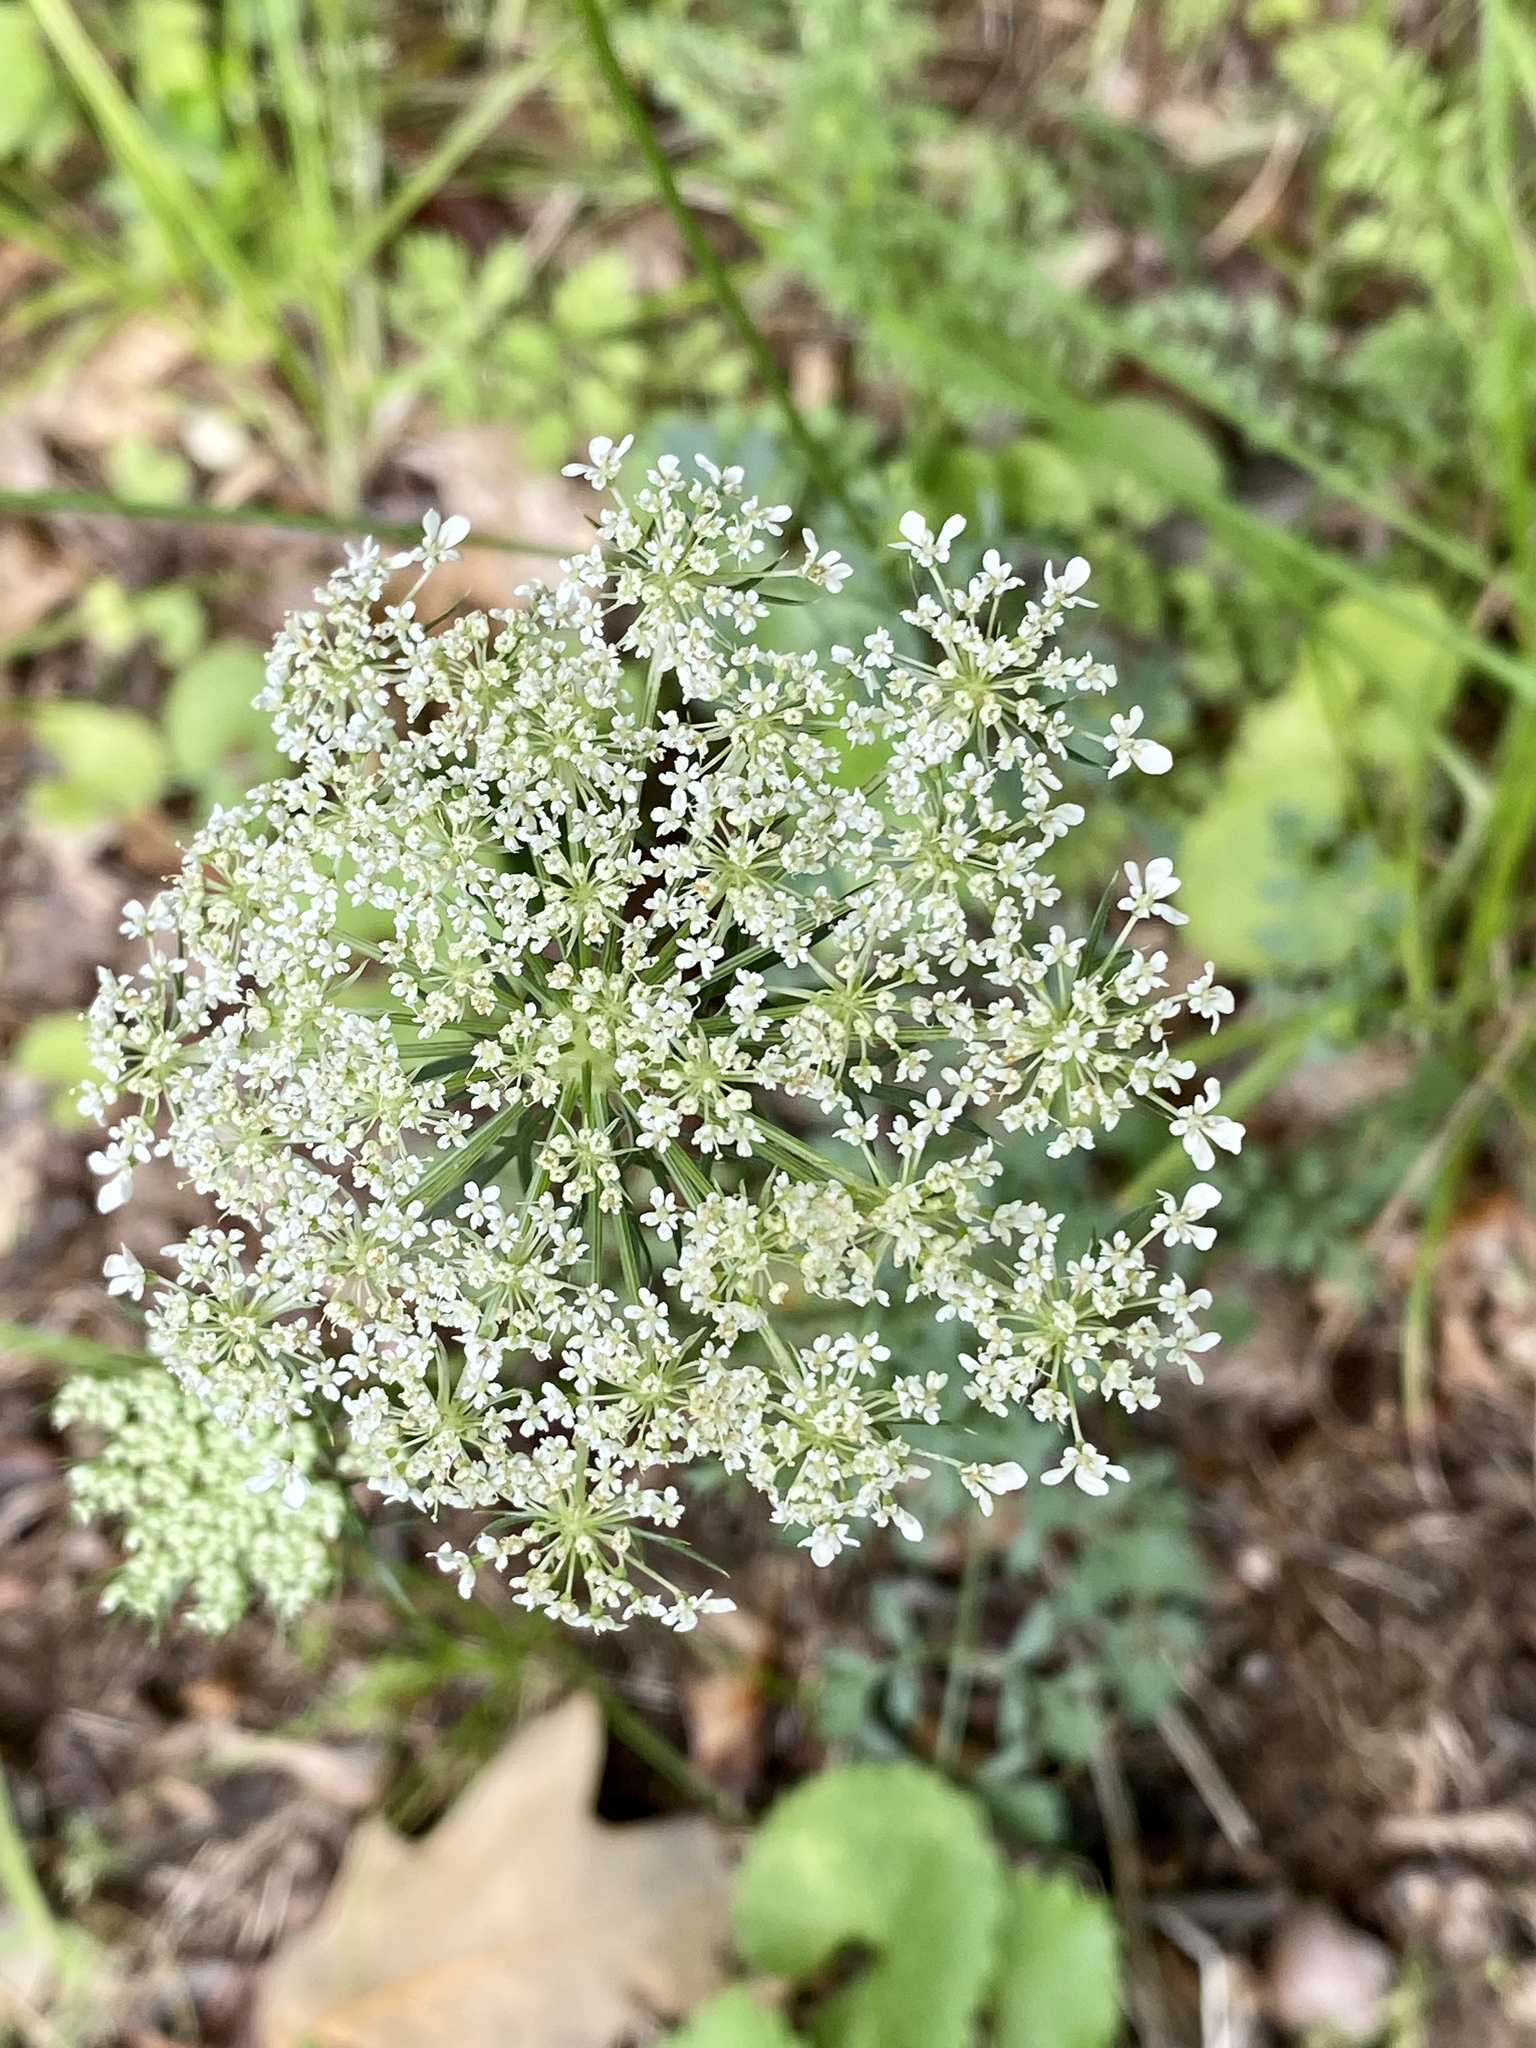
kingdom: Plantae
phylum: Tracheophyta
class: Magnoliopsida
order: Apiales
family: Apiaceae
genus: Daucus
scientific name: Daucus carota
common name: Wild carrot
